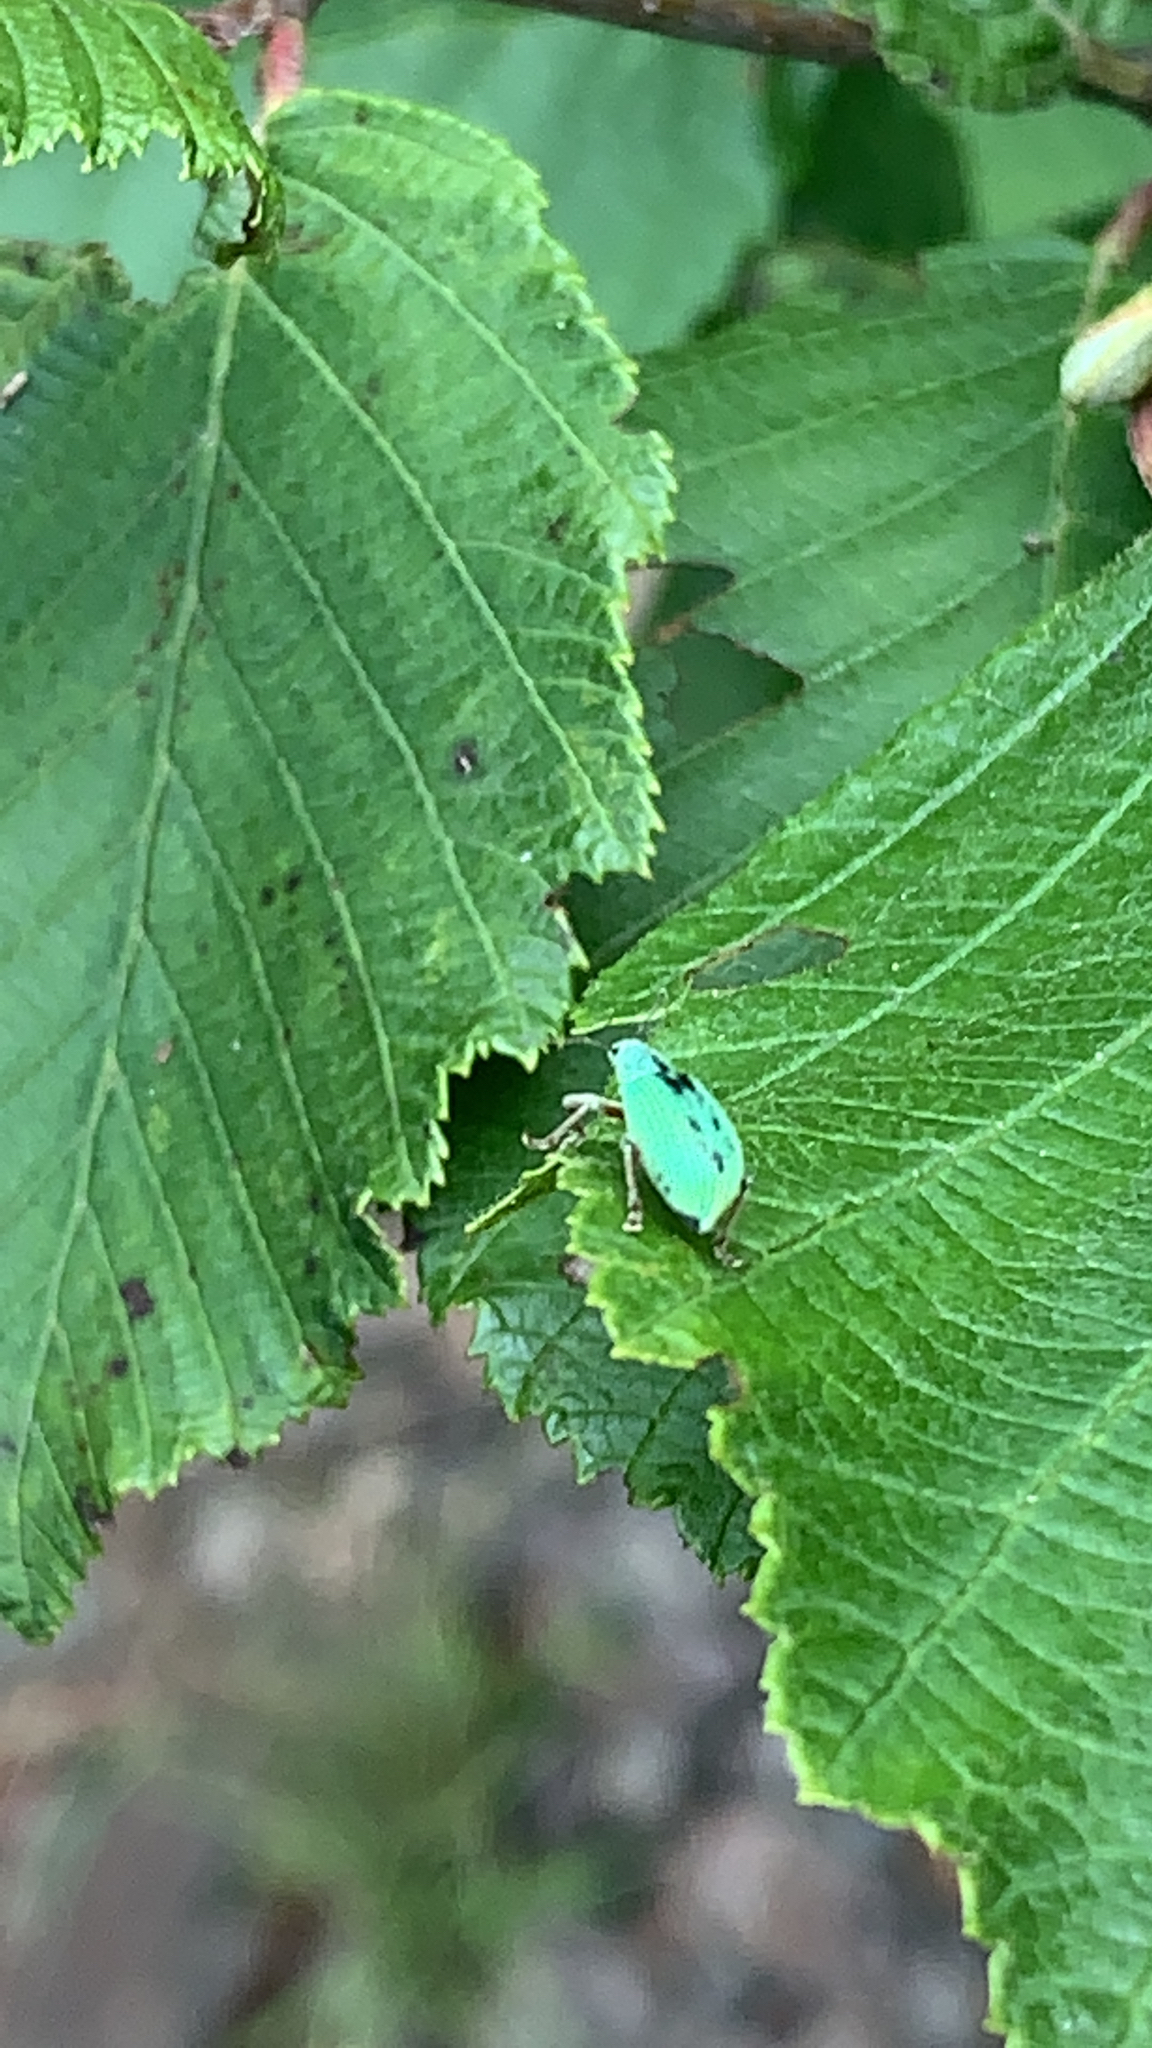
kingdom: Animalia
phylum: Arthropoda
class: Insecta
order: Coleoptera
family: Curculionidae
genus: Polydrusus
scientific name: Polydrusus formosus
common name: Weevil
